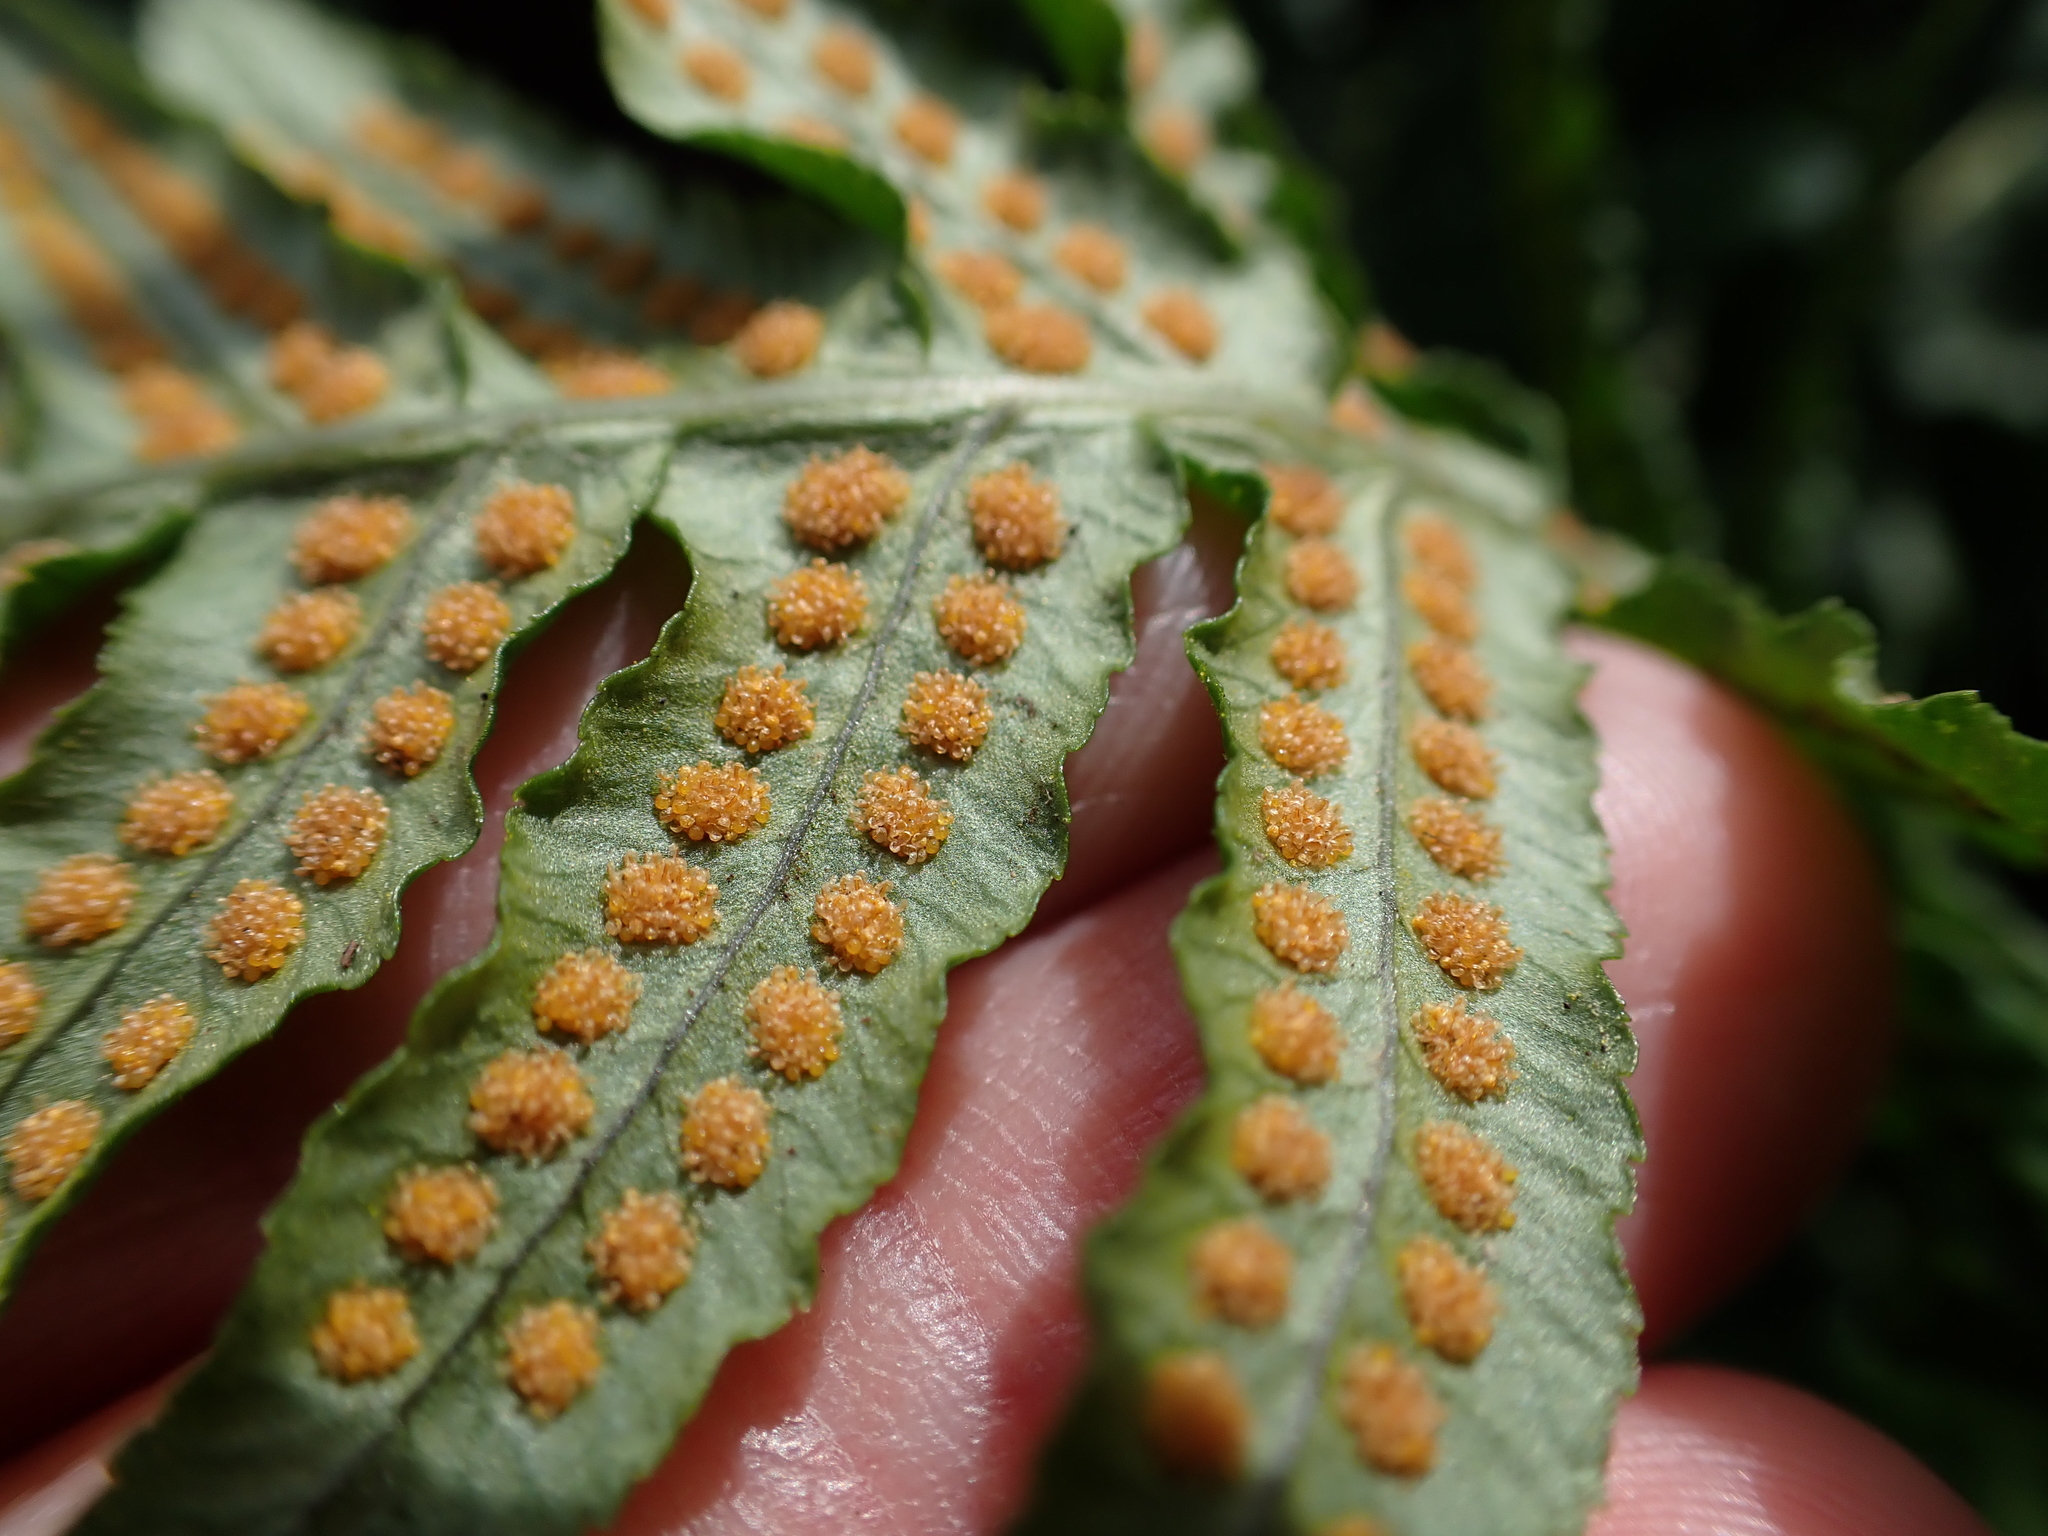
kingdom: Plantae
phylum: Tracheophyta
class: Polypodiopsida
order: Polypodiales
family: Polypodiaceae
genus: Polypodium
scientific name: Polypodium glycyrrhiza
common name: Licorice fern
